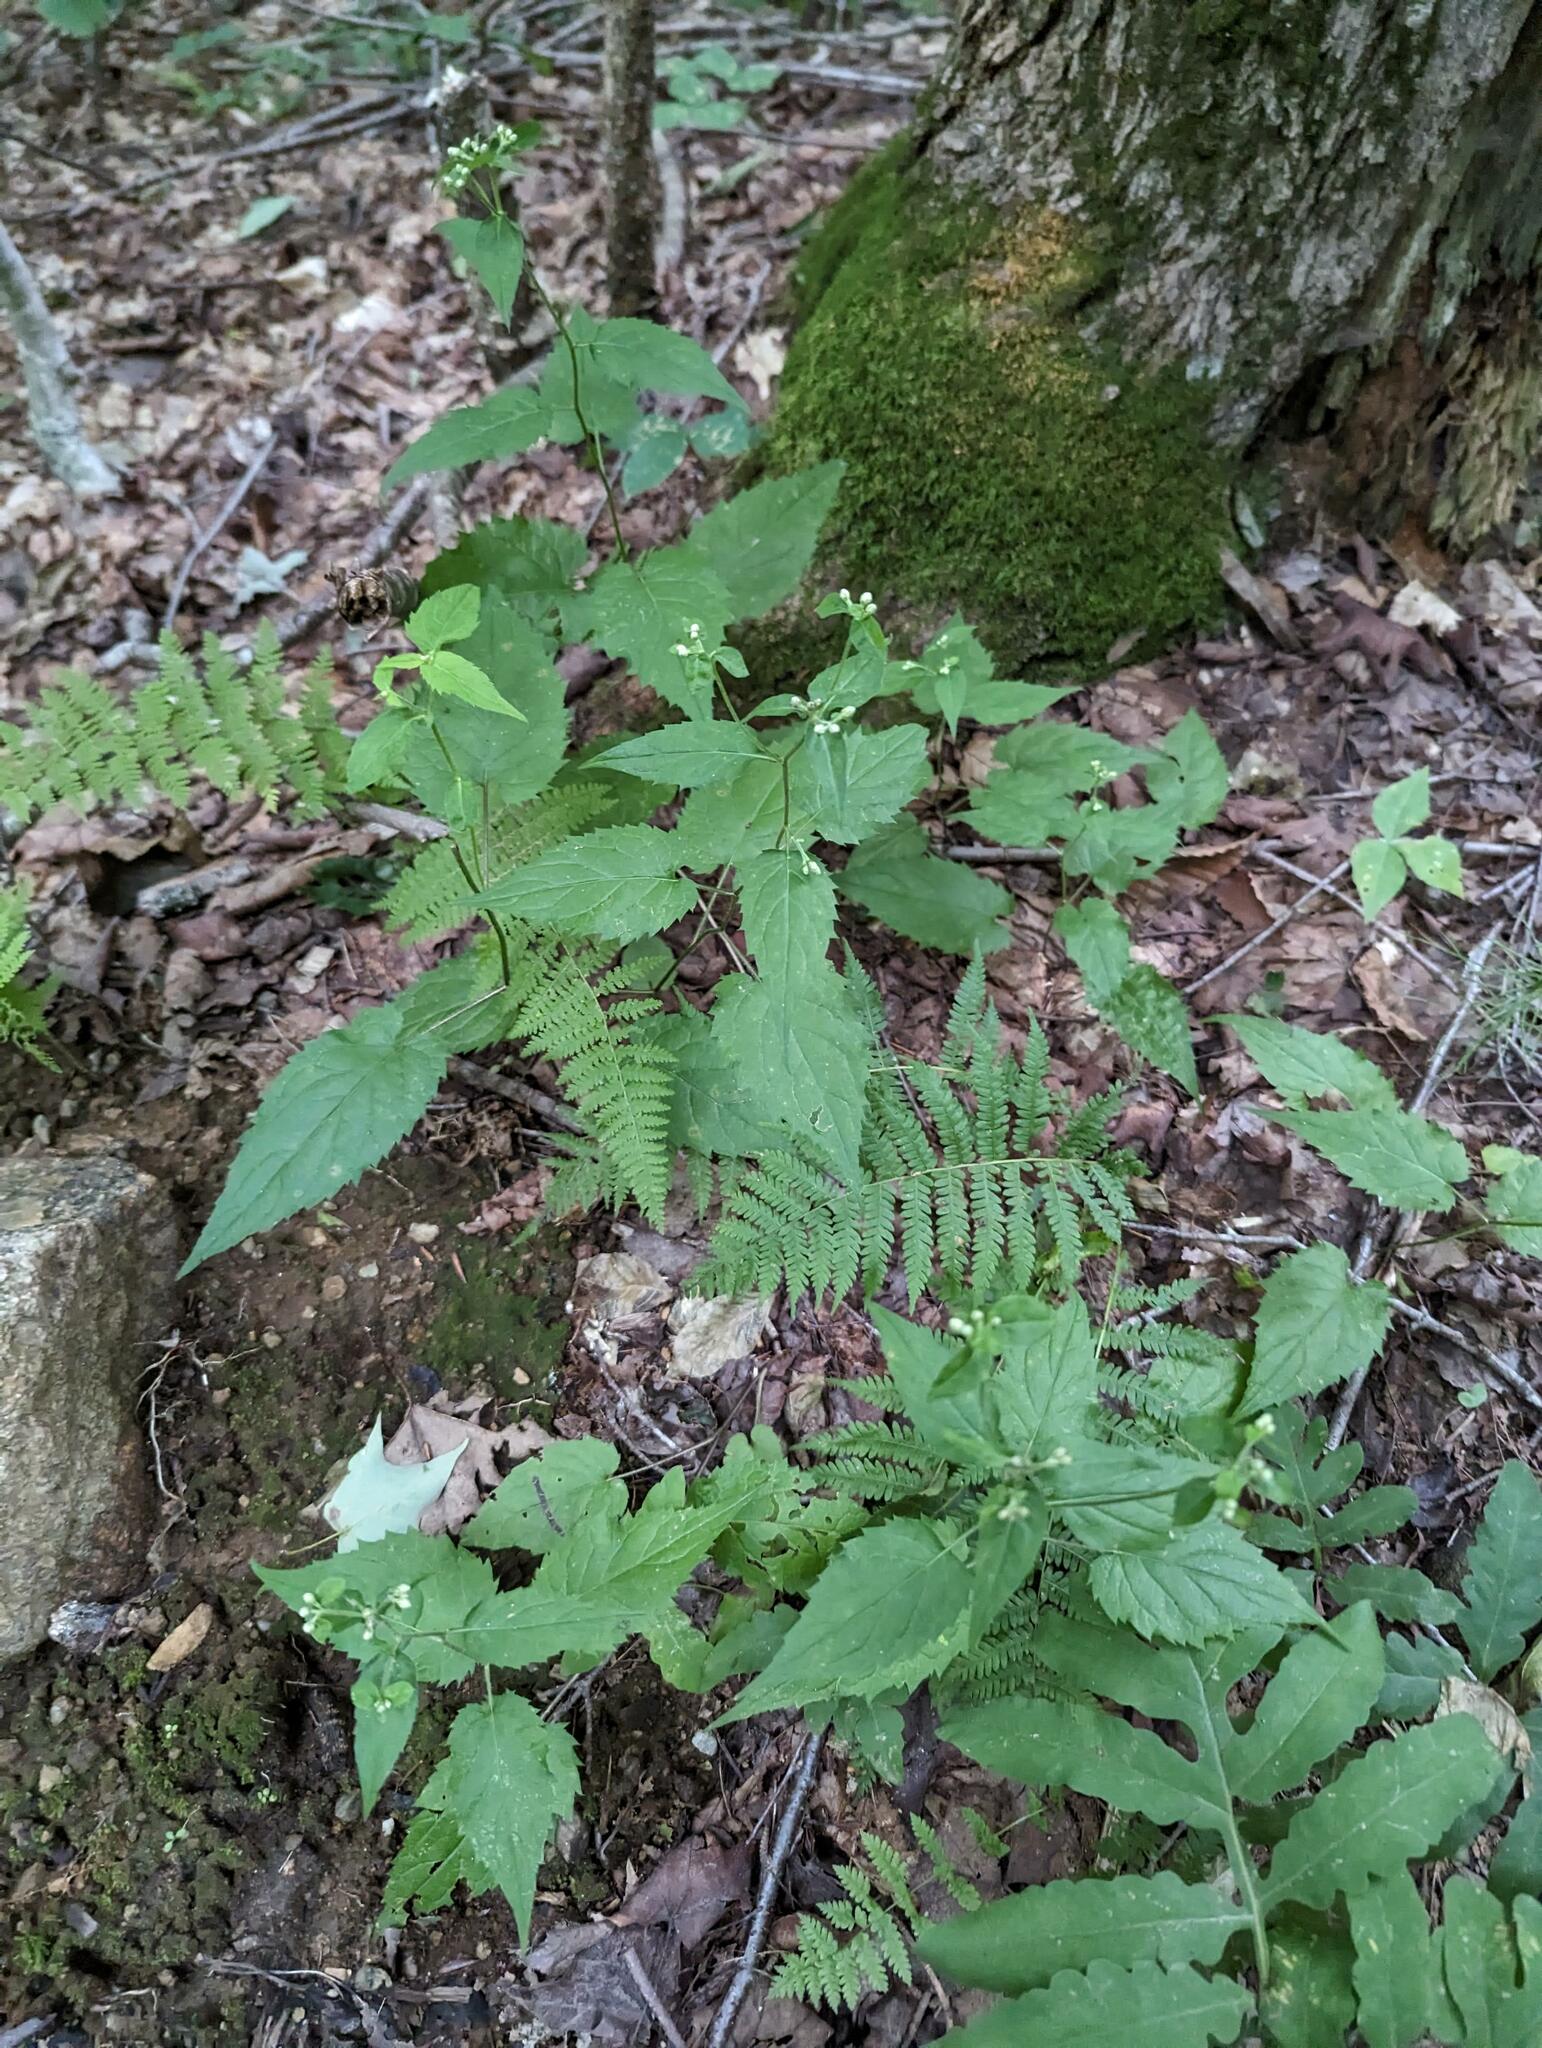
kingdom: Plantae
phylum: Tracheophyta
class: Magnoliopsida
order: Asterales
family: Asteraceae
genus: Eurybia
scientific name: Eurybia divaricata
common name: White wood aster
